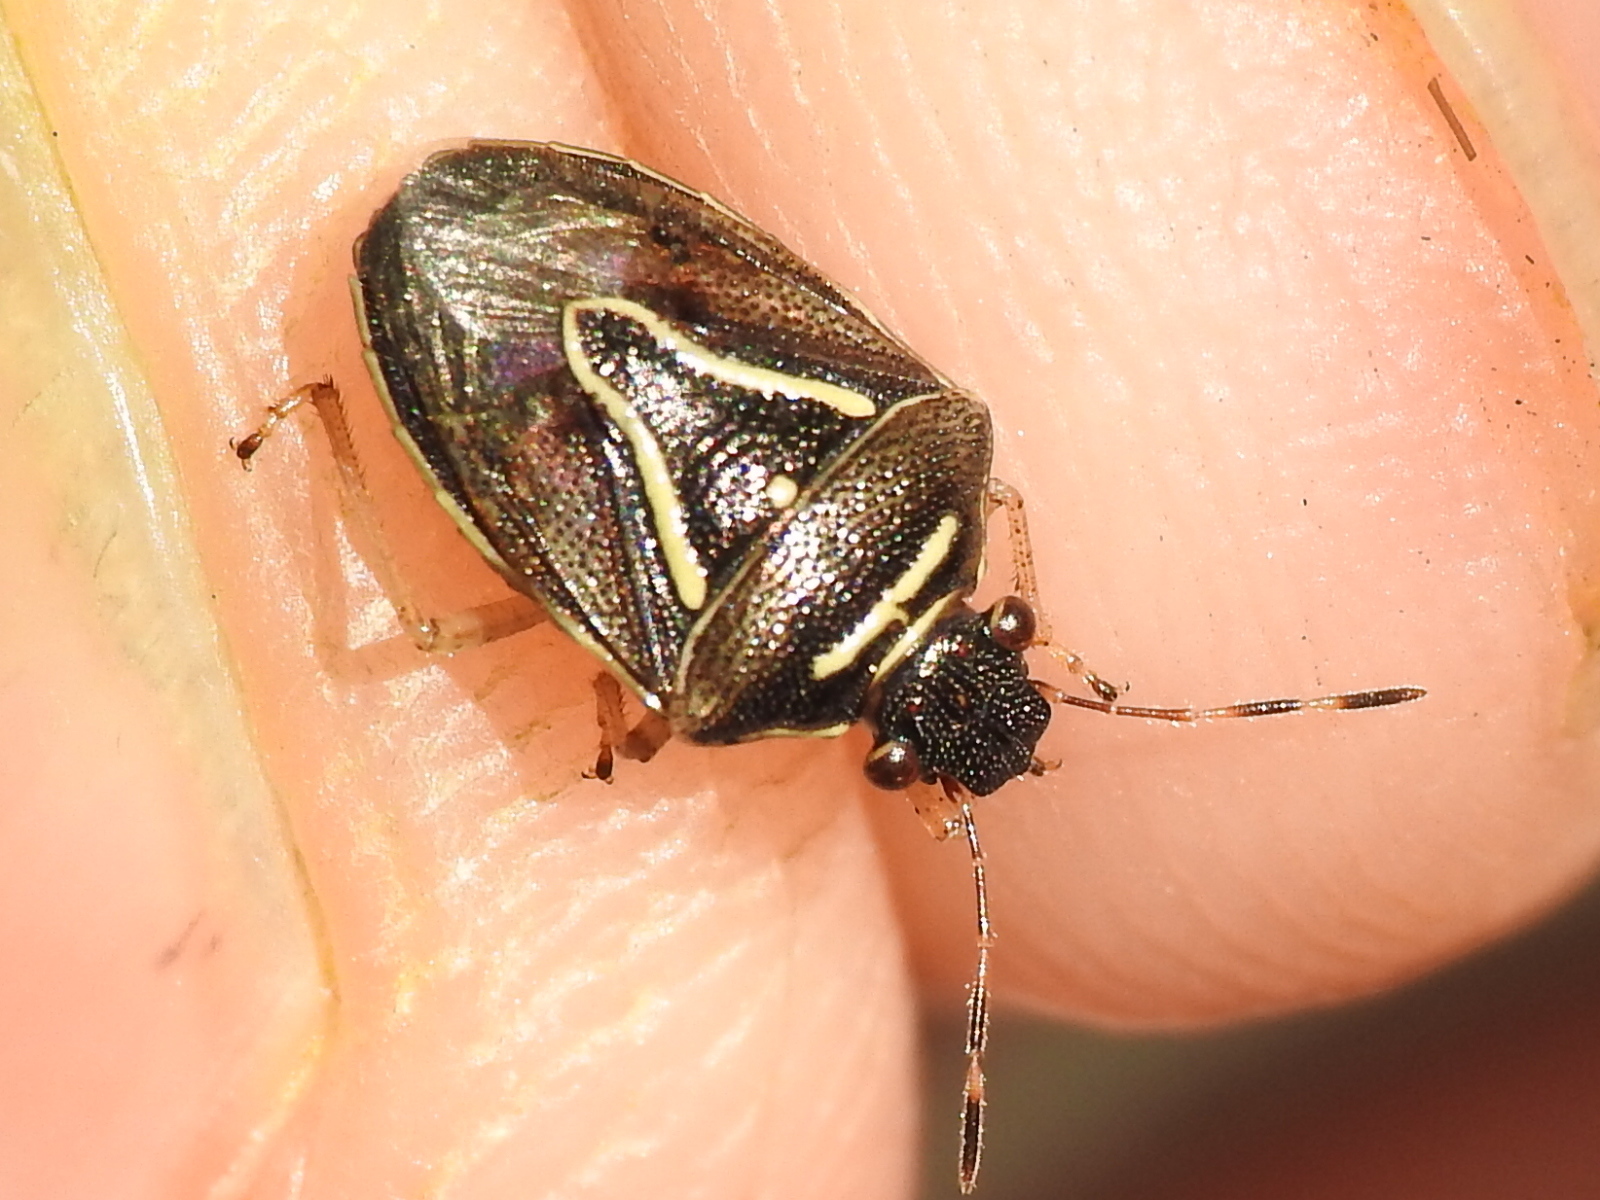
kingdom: Animalia
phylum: Arthropoda
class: Insecta
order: Hemiptera
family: Pentatomidae
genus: Mormidea
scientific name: Mormidea lugens
